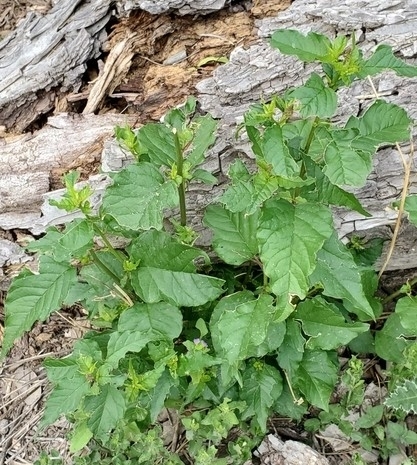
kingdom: Plantae
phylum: Tracheophyta
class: Magnoliopsida
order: Caryophyllales
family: Phytolaccaceae
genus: Rivina
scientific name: Rivina humilis
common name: Rougeplant
